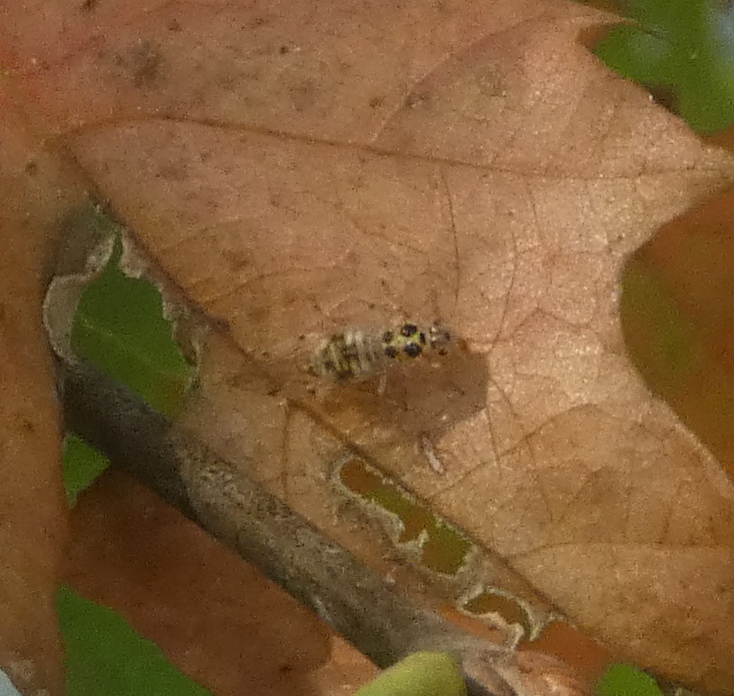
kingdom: Animalia
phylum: Arthropoda
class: Insecta
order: Psocodea
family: Dasydemellidae
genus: Teliapsocus
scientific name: Teliapsocus conterminus
